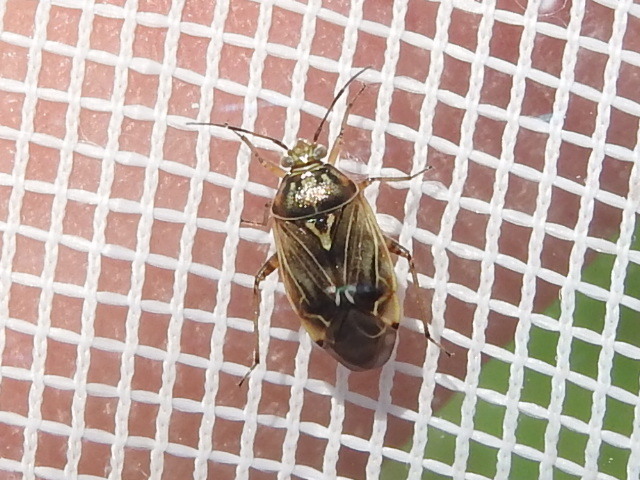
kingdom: Animalia
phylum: Arthropoda
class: Insecta
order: Hemiptera
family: Miridae
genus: Lygus
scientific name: Lygus lineolaris
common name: North american tarnished plant bug
